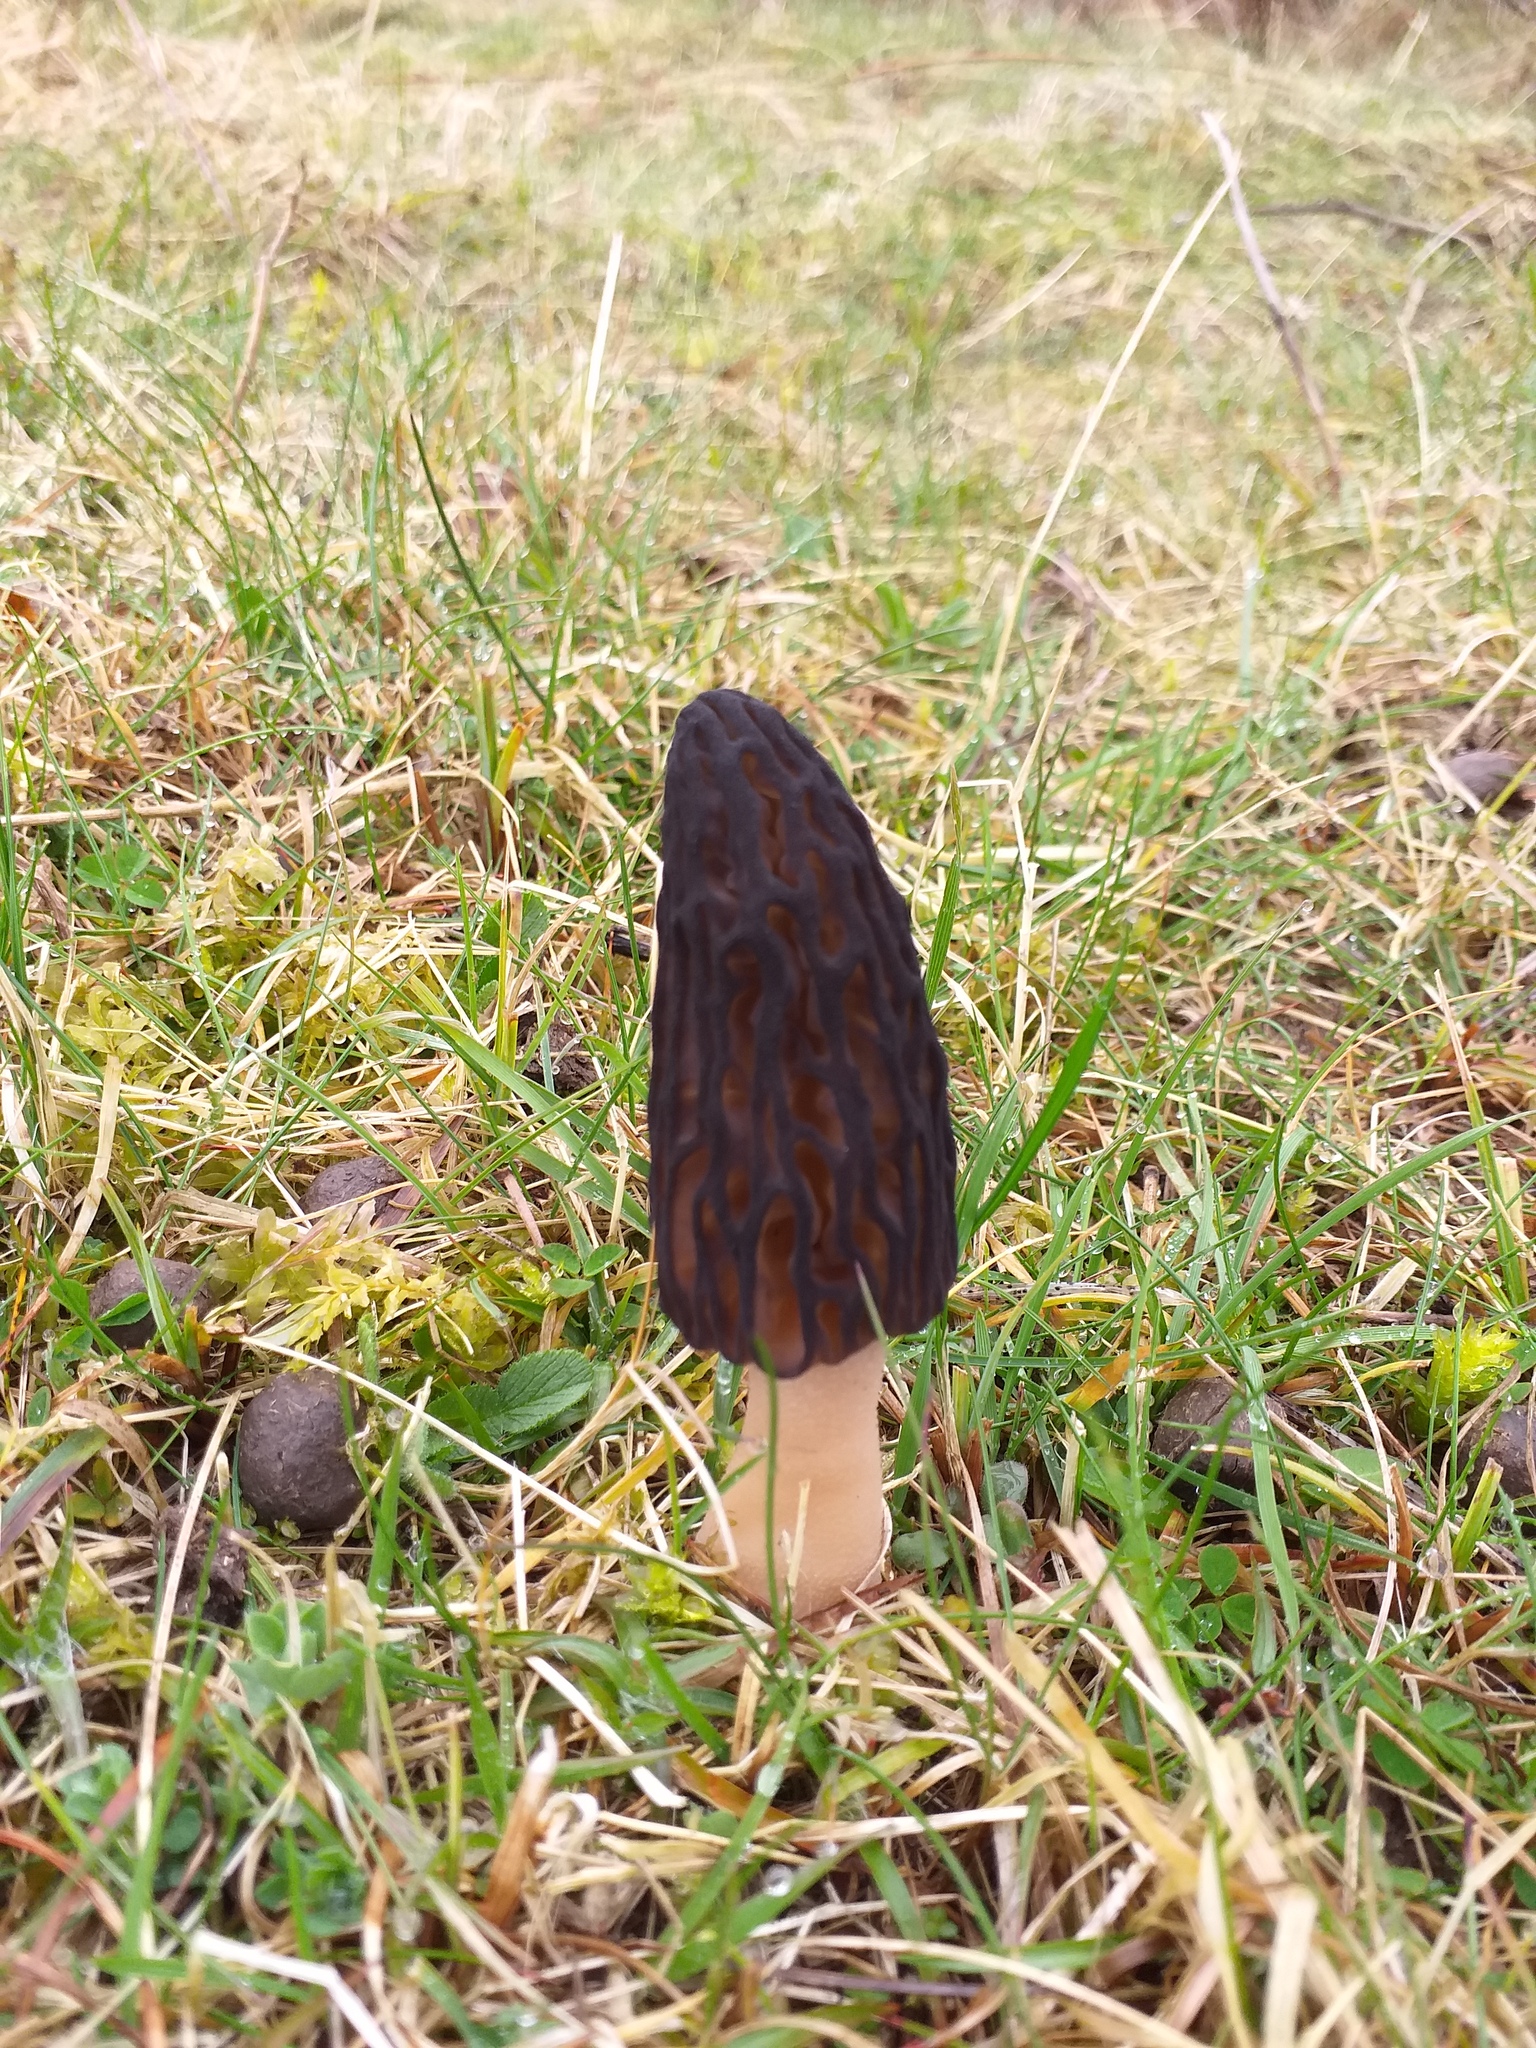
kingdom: Fungi
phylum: Ascomycota
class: Pezizomycetes
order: Pezizales
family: Morchellaceae
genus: Morchella
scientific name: Morchella purpurascens
